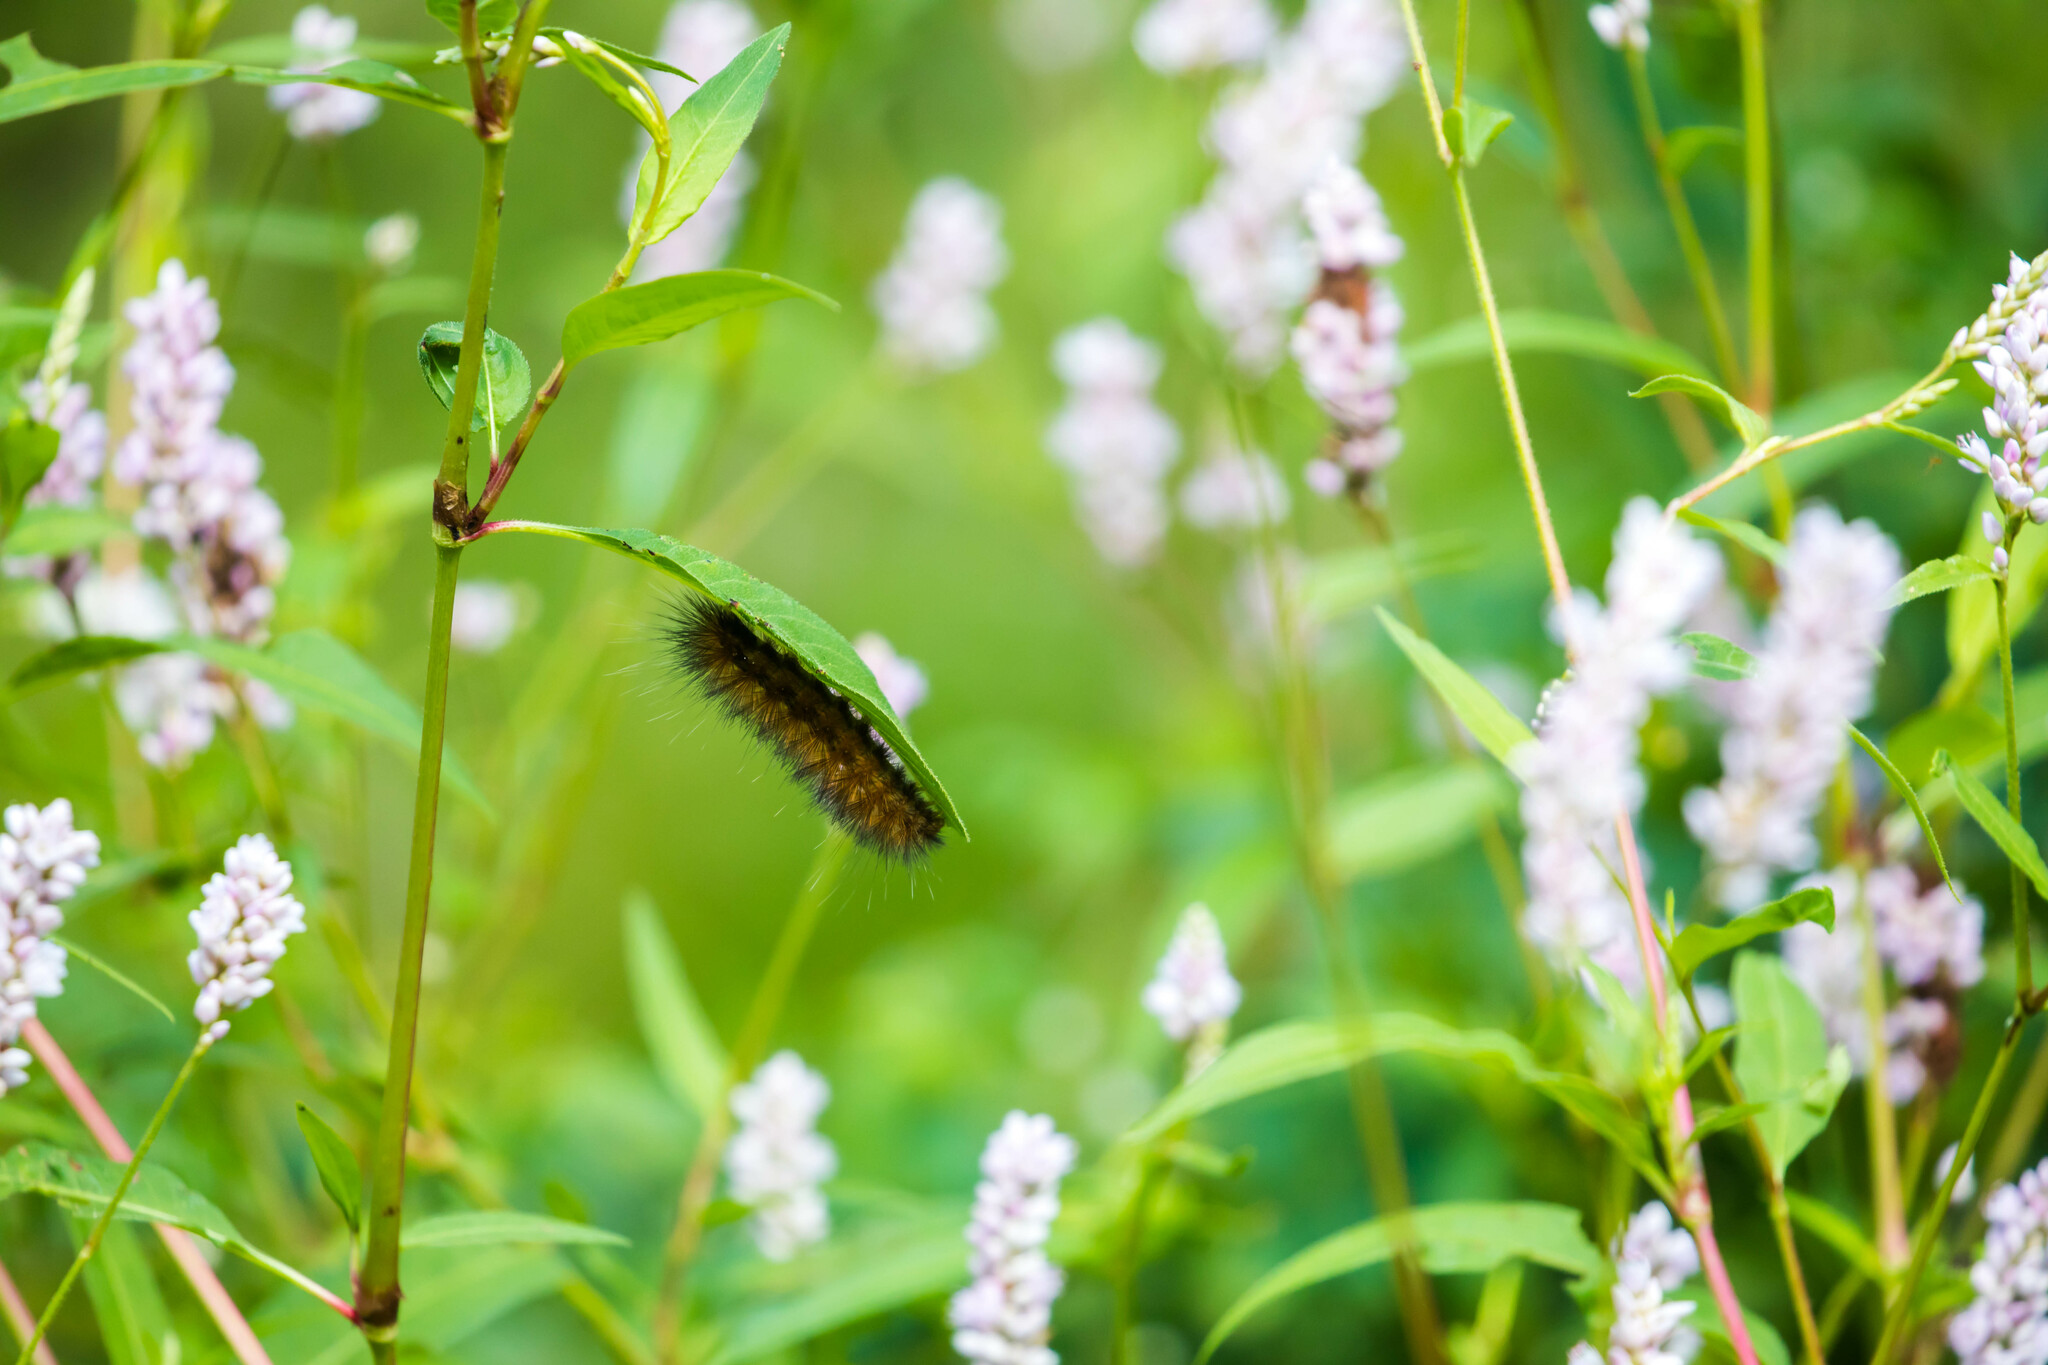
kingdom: Animalia
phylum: Arthropoda
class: Insecta
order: Lepidoptera
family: Erebidae
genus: Spilosoma
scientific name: Spilosoma virginica
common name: Virginia tiger moth
